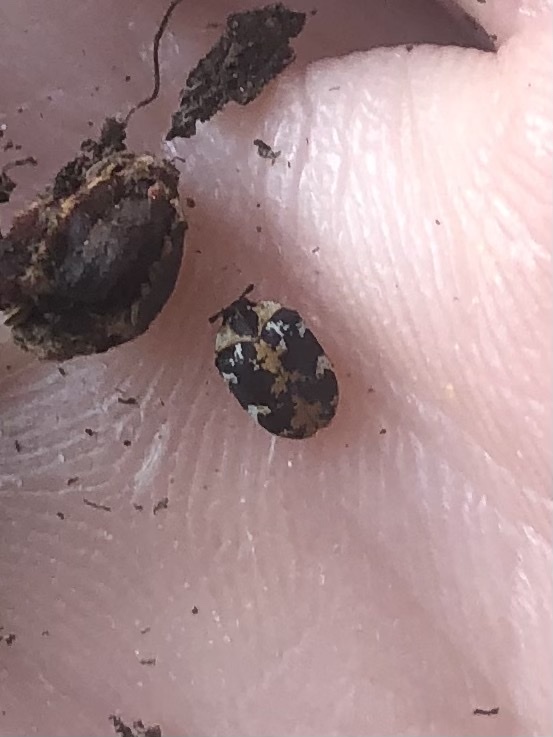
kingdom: Animalia
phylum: Arthropoda
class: Insecta
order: Coleoptera
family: Dermestidae
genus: Anthrenus
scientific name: Anthrenus scrophulariae
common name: Buffalo carpet beetle
